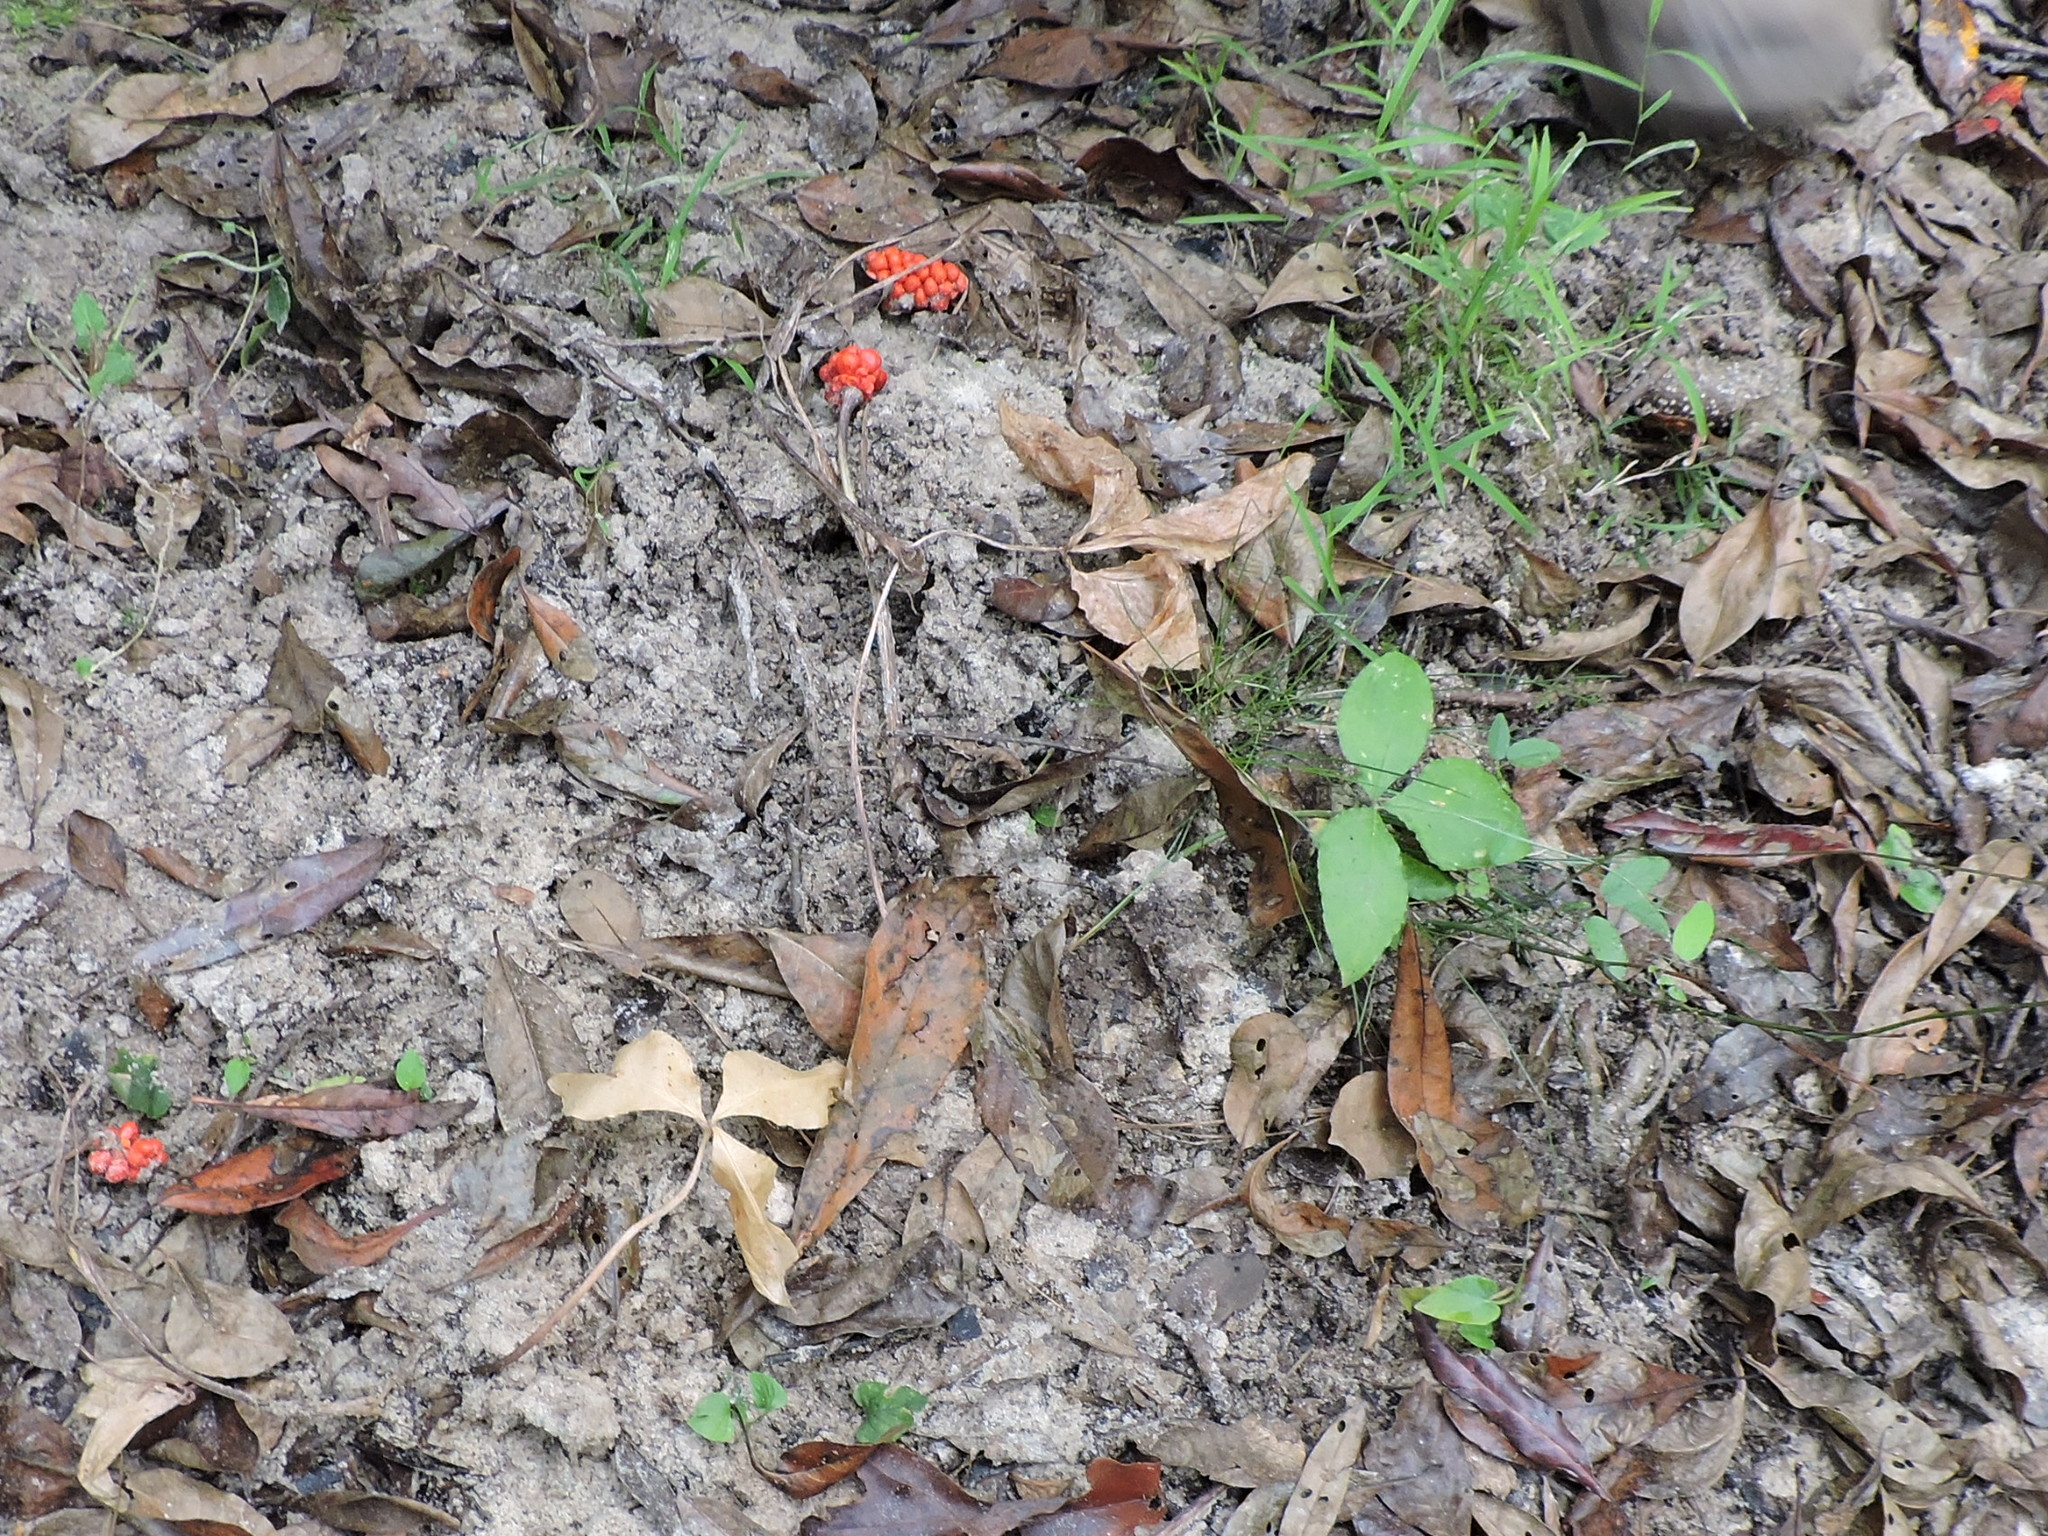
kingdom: Plantae
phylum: Tracheophyta
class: Liliopsida
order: Alismatales
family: Araceae
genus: Arisaema
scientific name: Arisaema triphyllum
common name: Jack-in-the-pulpit
